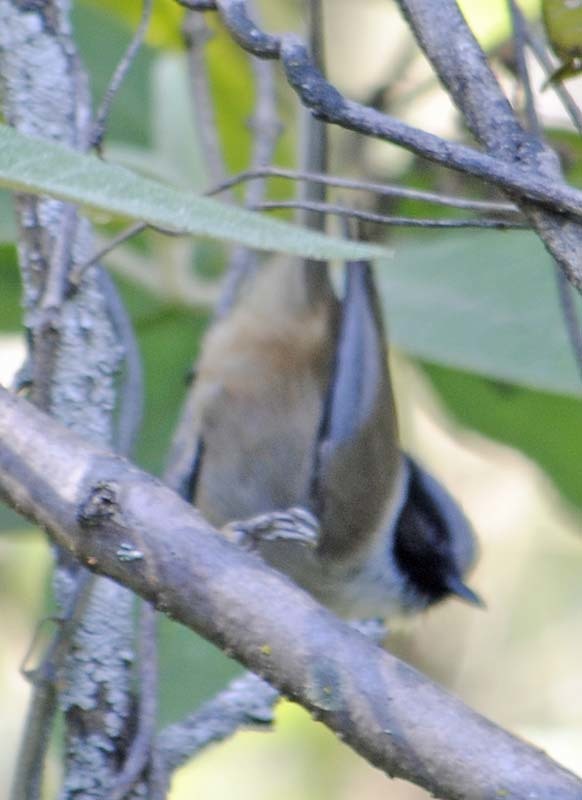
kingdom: Animalia
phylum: Chordata
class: Aves
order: Passeriformes
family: Aegithalidae
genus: Psaltriparus
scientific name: Psaltriparus minimus
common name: American bushtit
